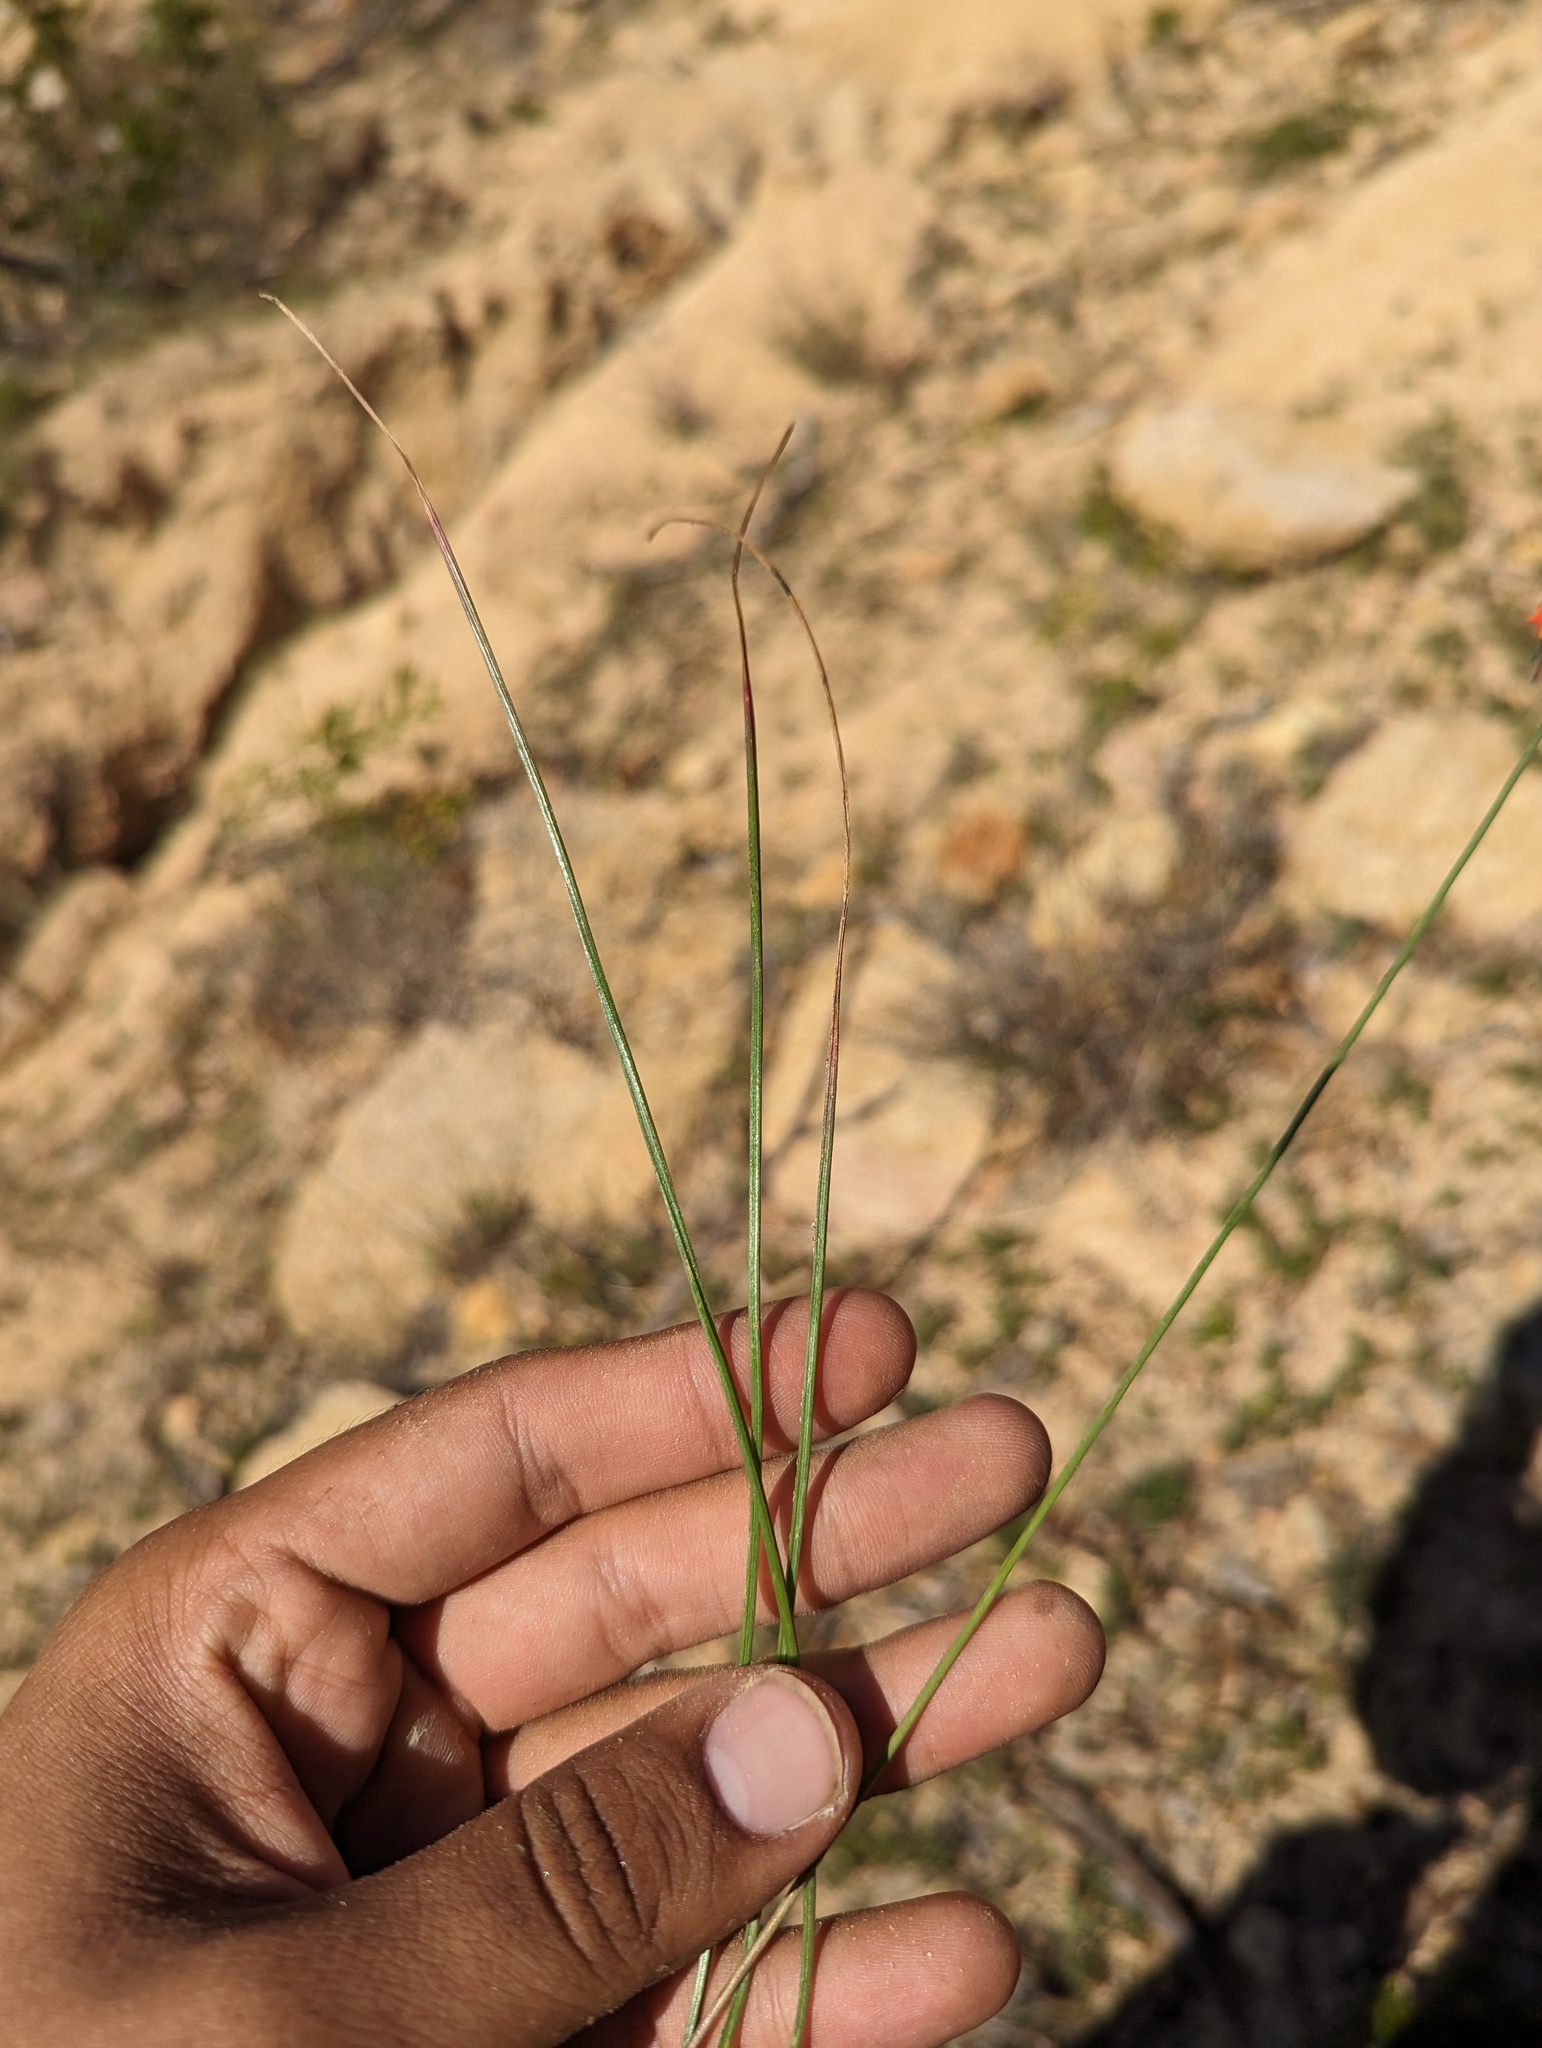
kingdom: Plantae
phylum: Tracheophyta
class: Liliopsida
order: Asparagales
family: Asparagaceae
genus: Bessera
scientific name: Bessera tenuiflora
